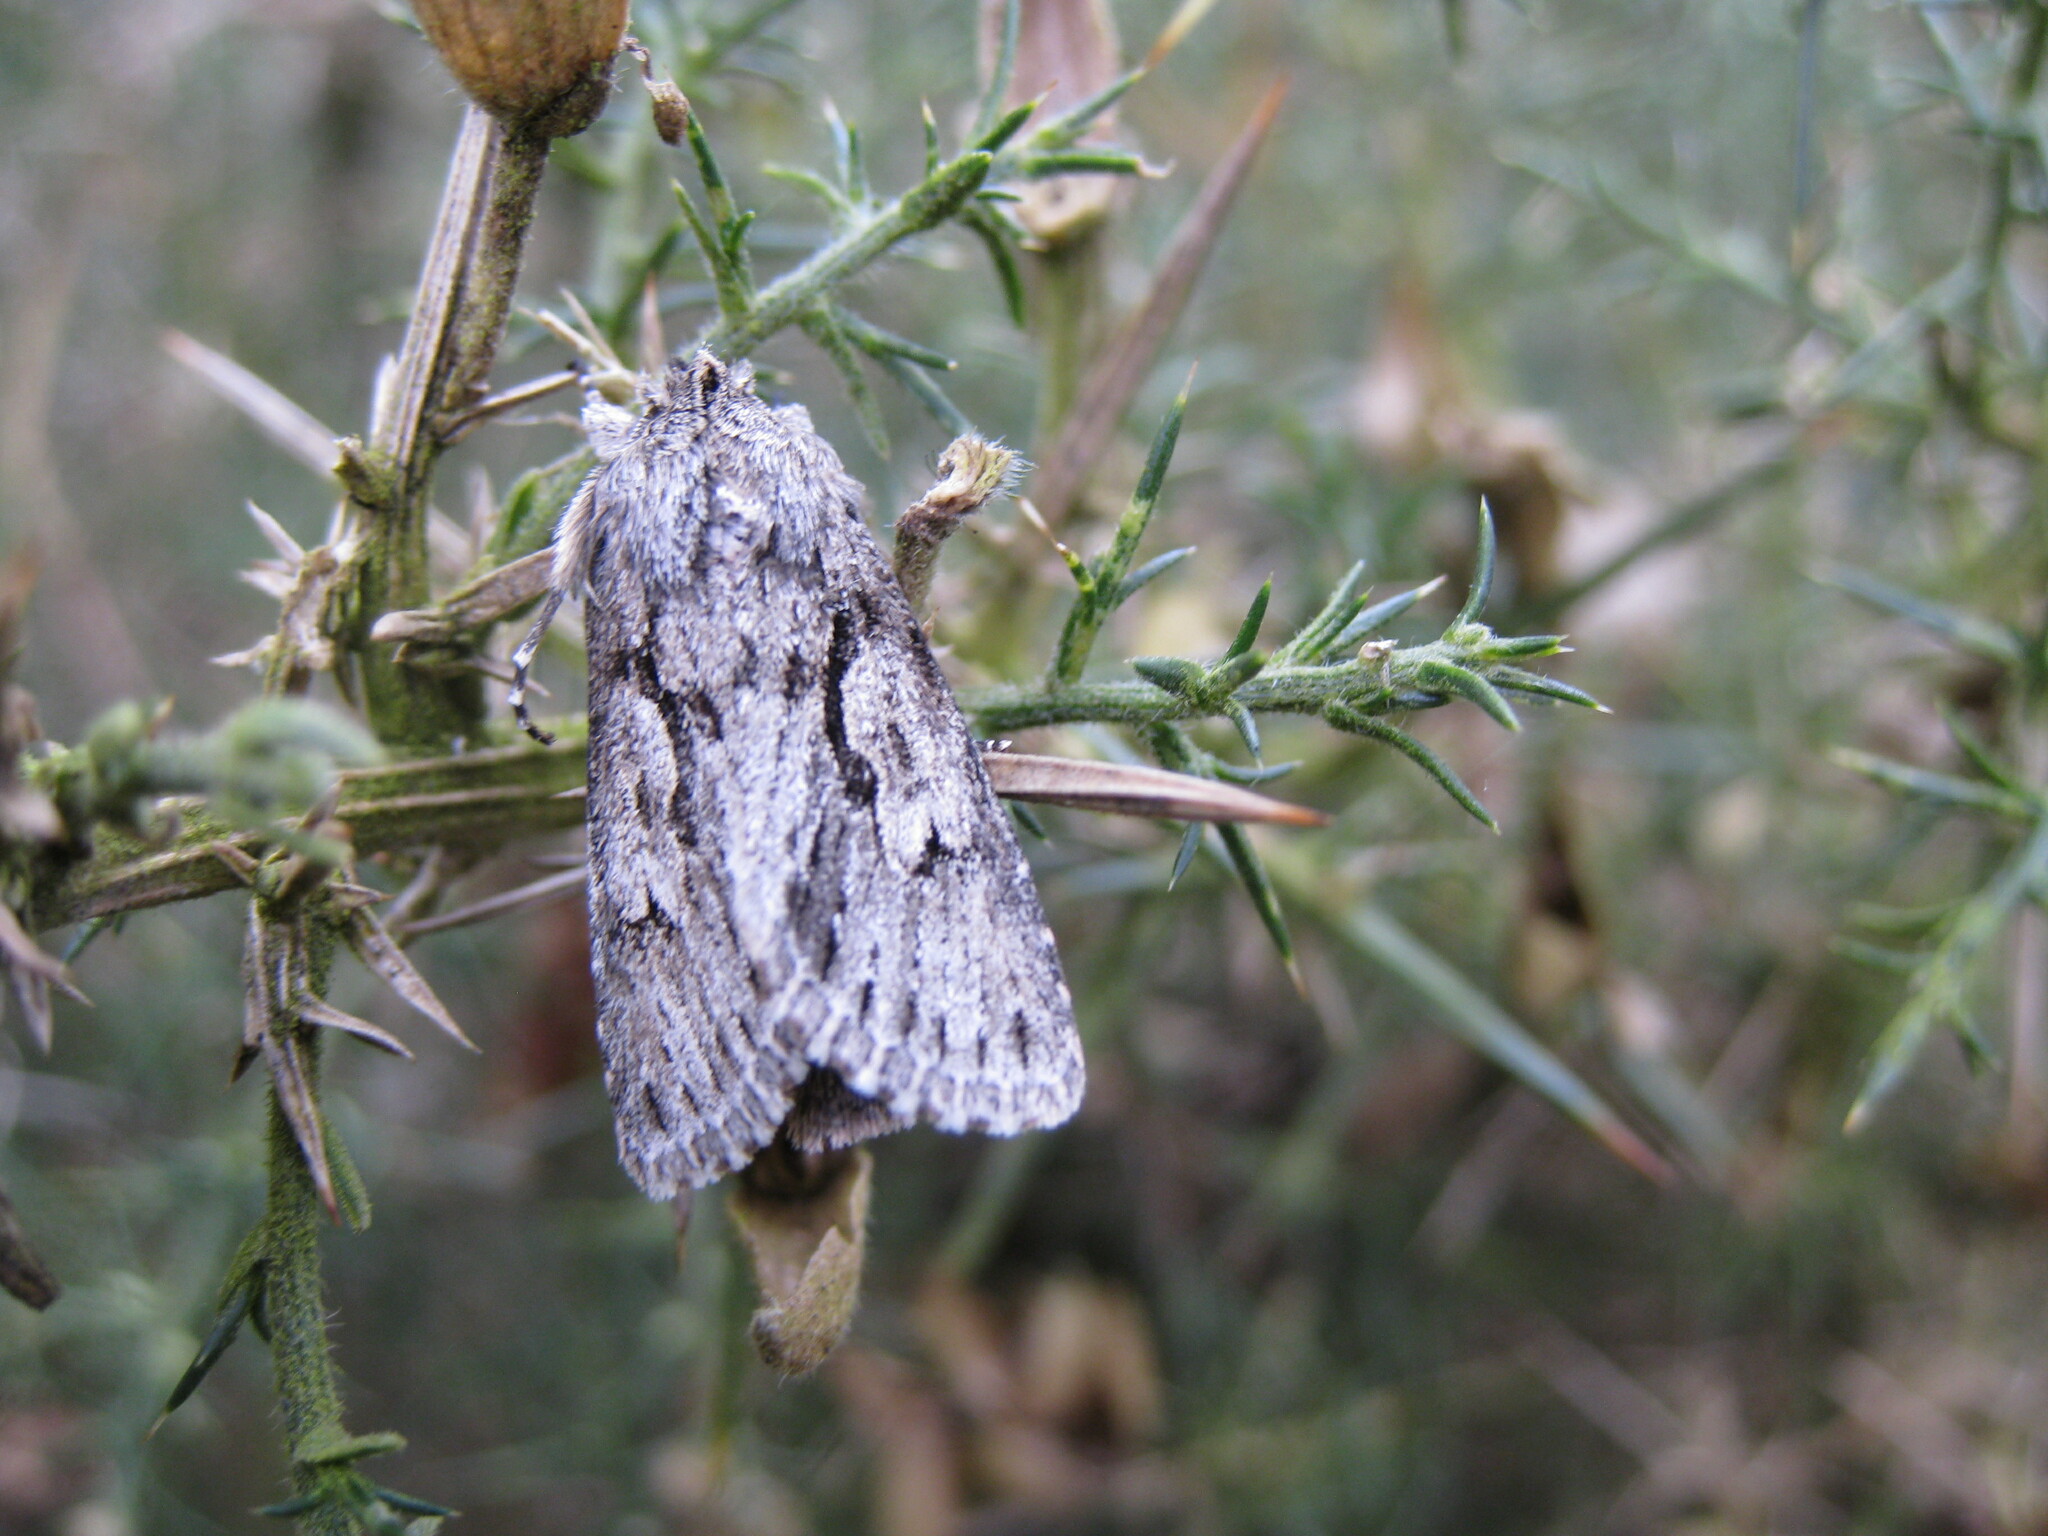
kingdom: Animalia
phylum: Arthropoda
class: Insecta
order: Lepidoptera
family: Noctuidae
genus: Xylocampa
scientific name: Xylocampa areola
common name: Early grey
